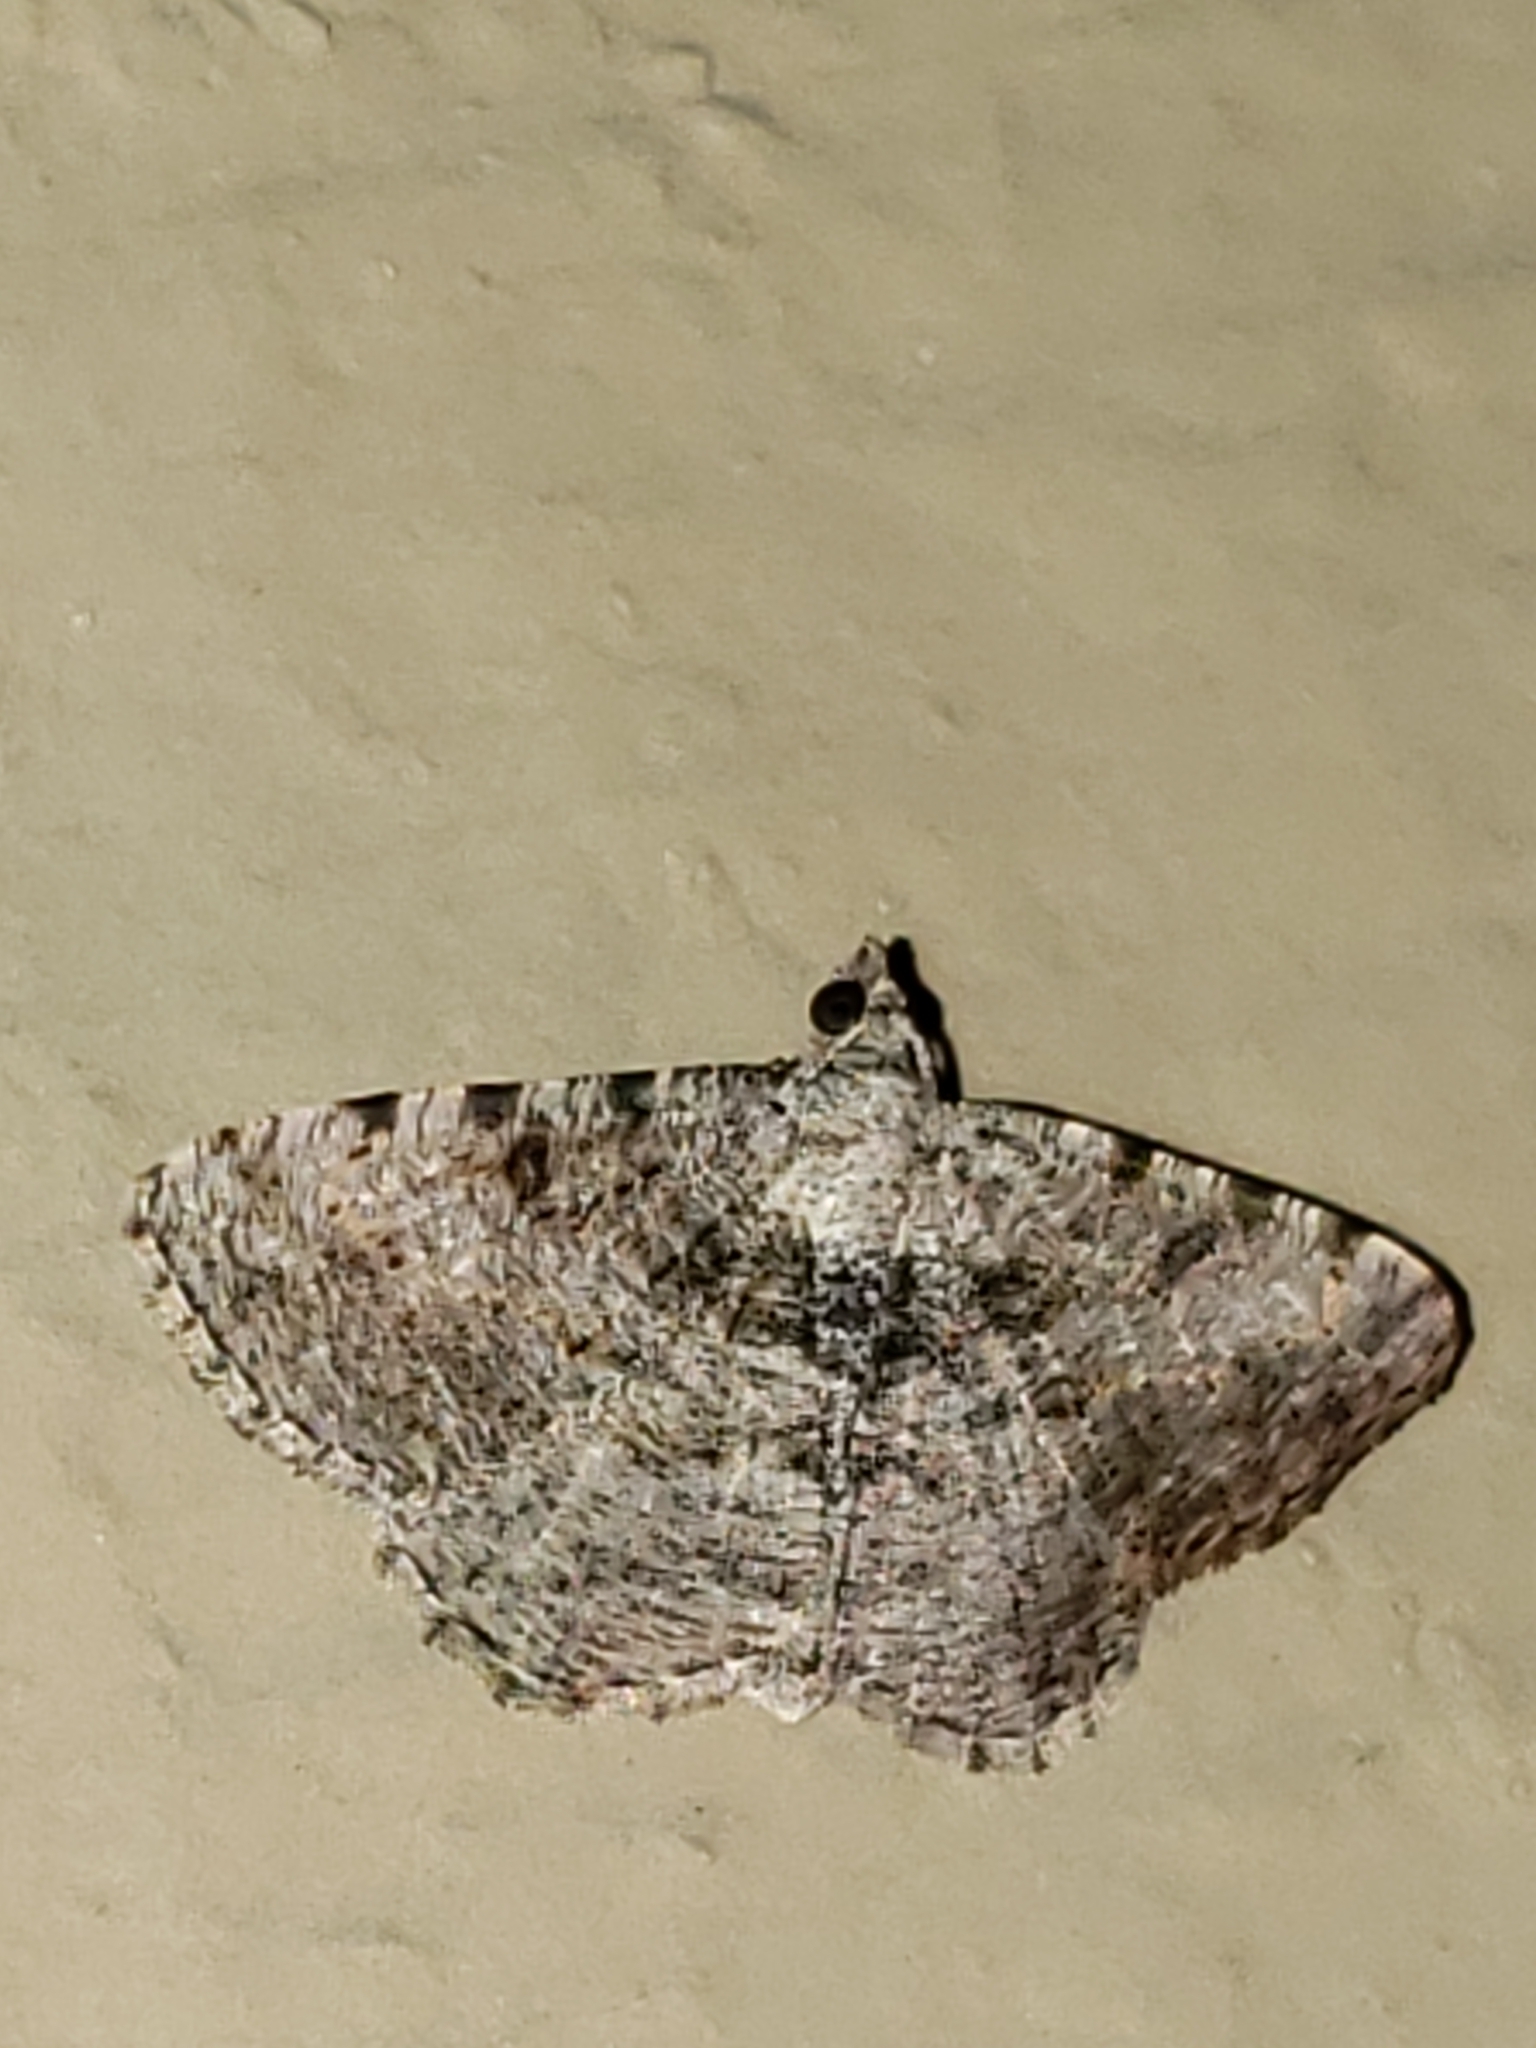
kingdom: Animalia
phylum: Arthropoda
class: Insecta
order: Lepidoptera
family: Geometridae
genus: Digrammia
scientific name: Digrammia gnophosaria
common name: Hollow-spotted angle
